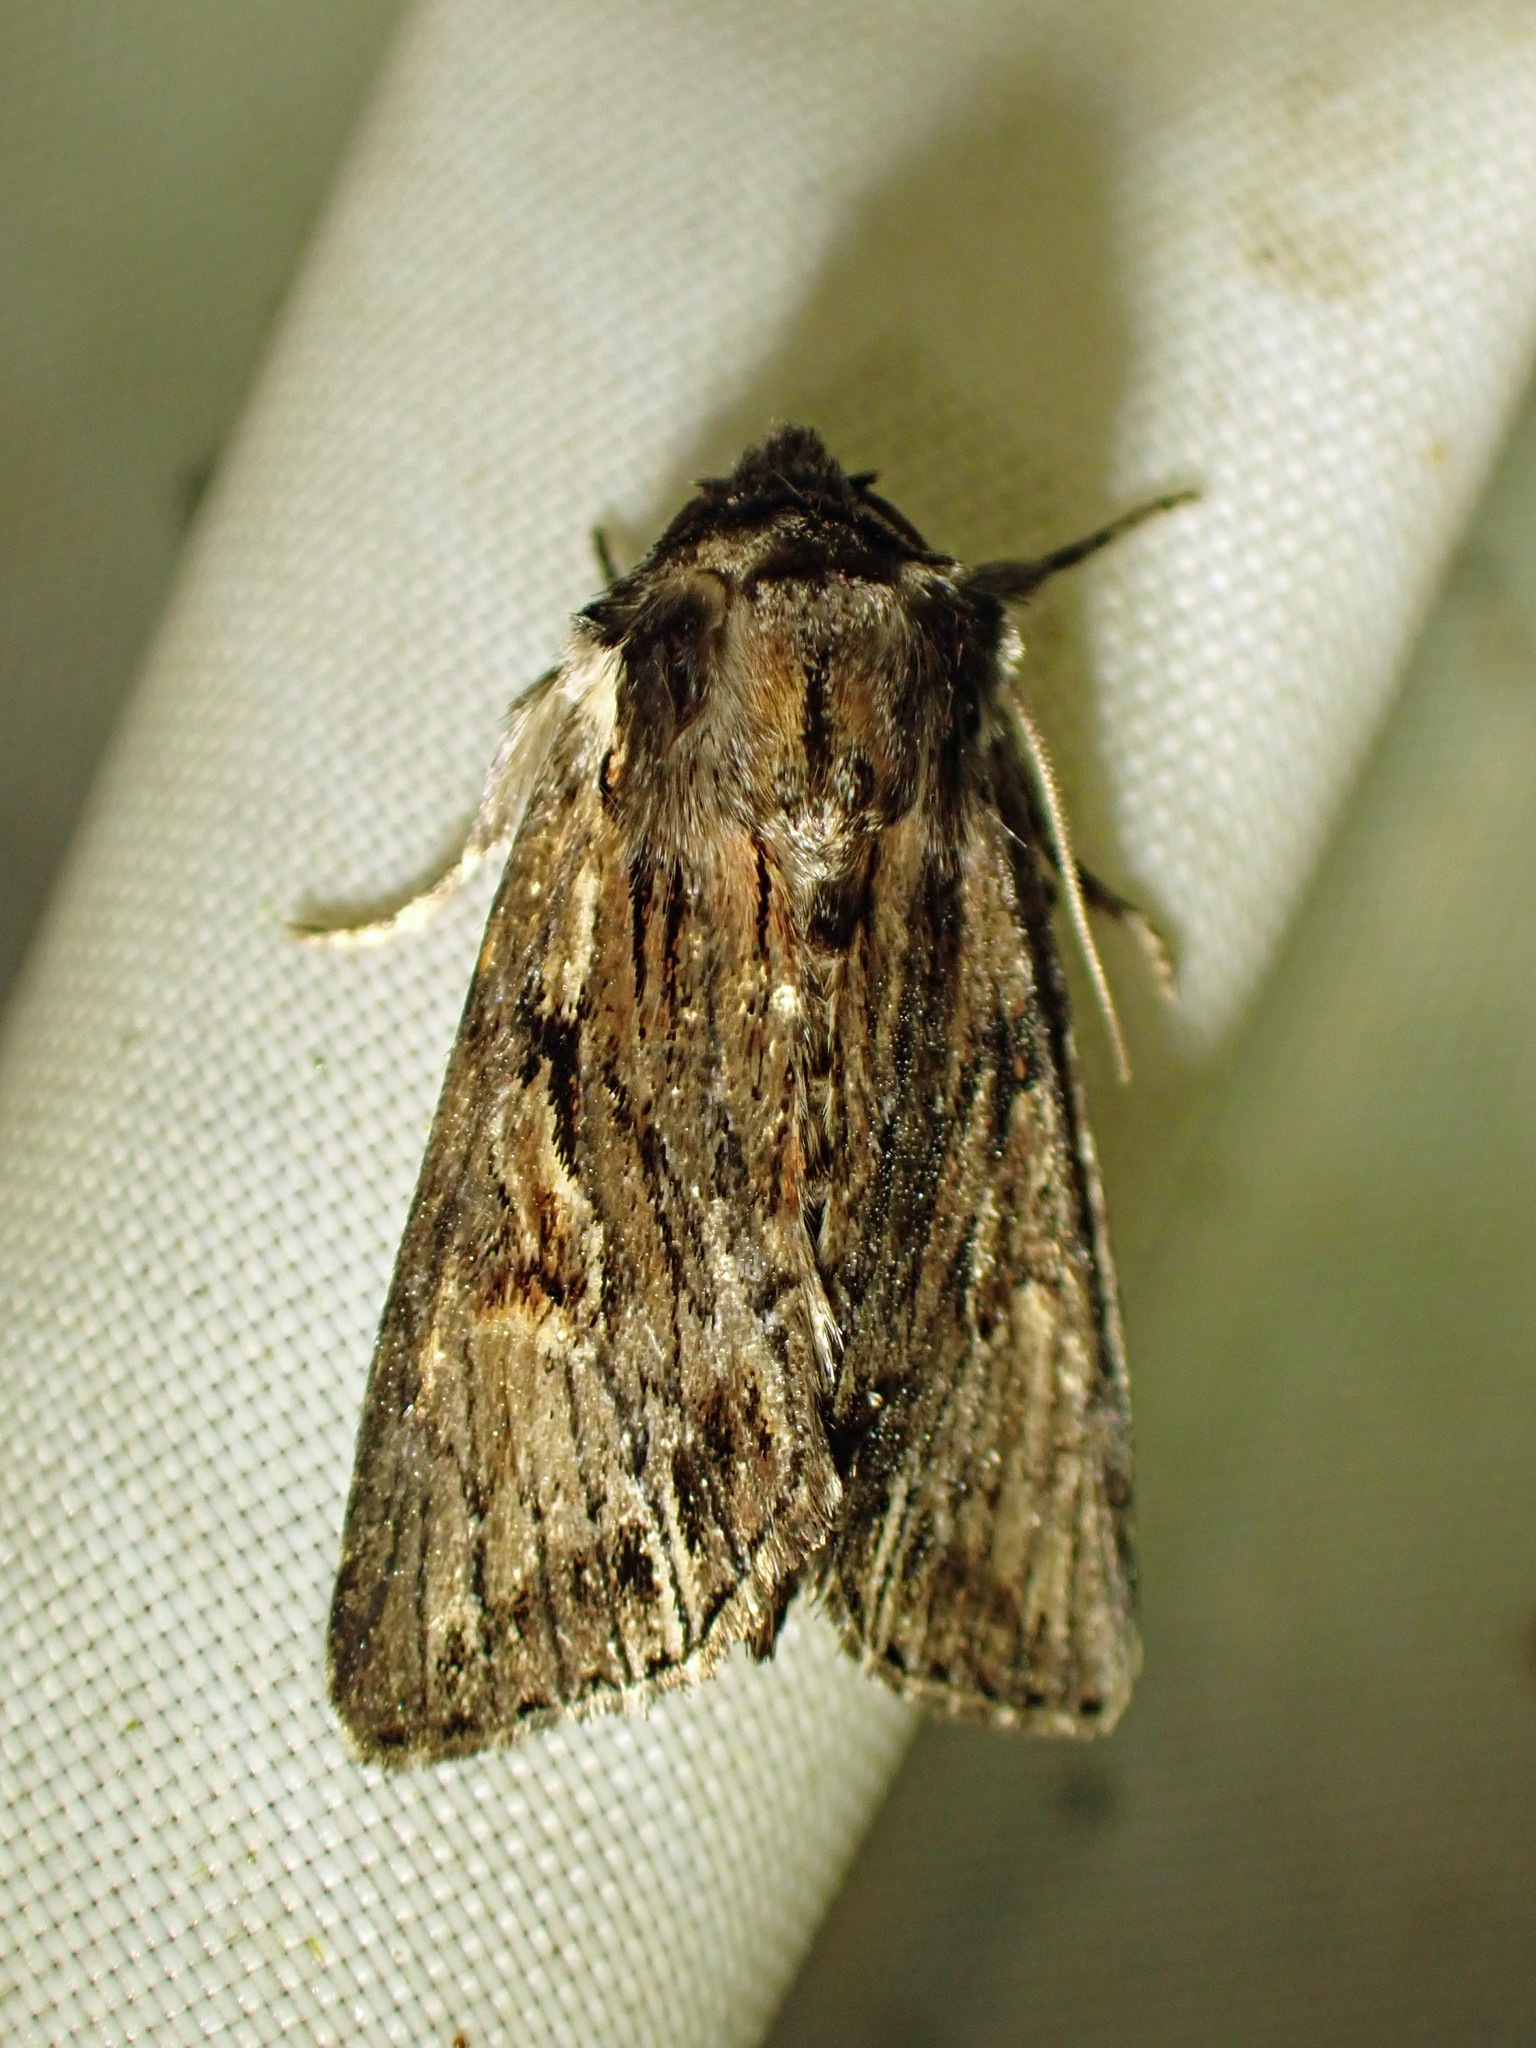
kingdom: Animalia
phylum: Arthropoda
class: Insecta
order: Lepidoptera
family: Noctuidae
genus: Achatia
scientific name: Achatia evicta
